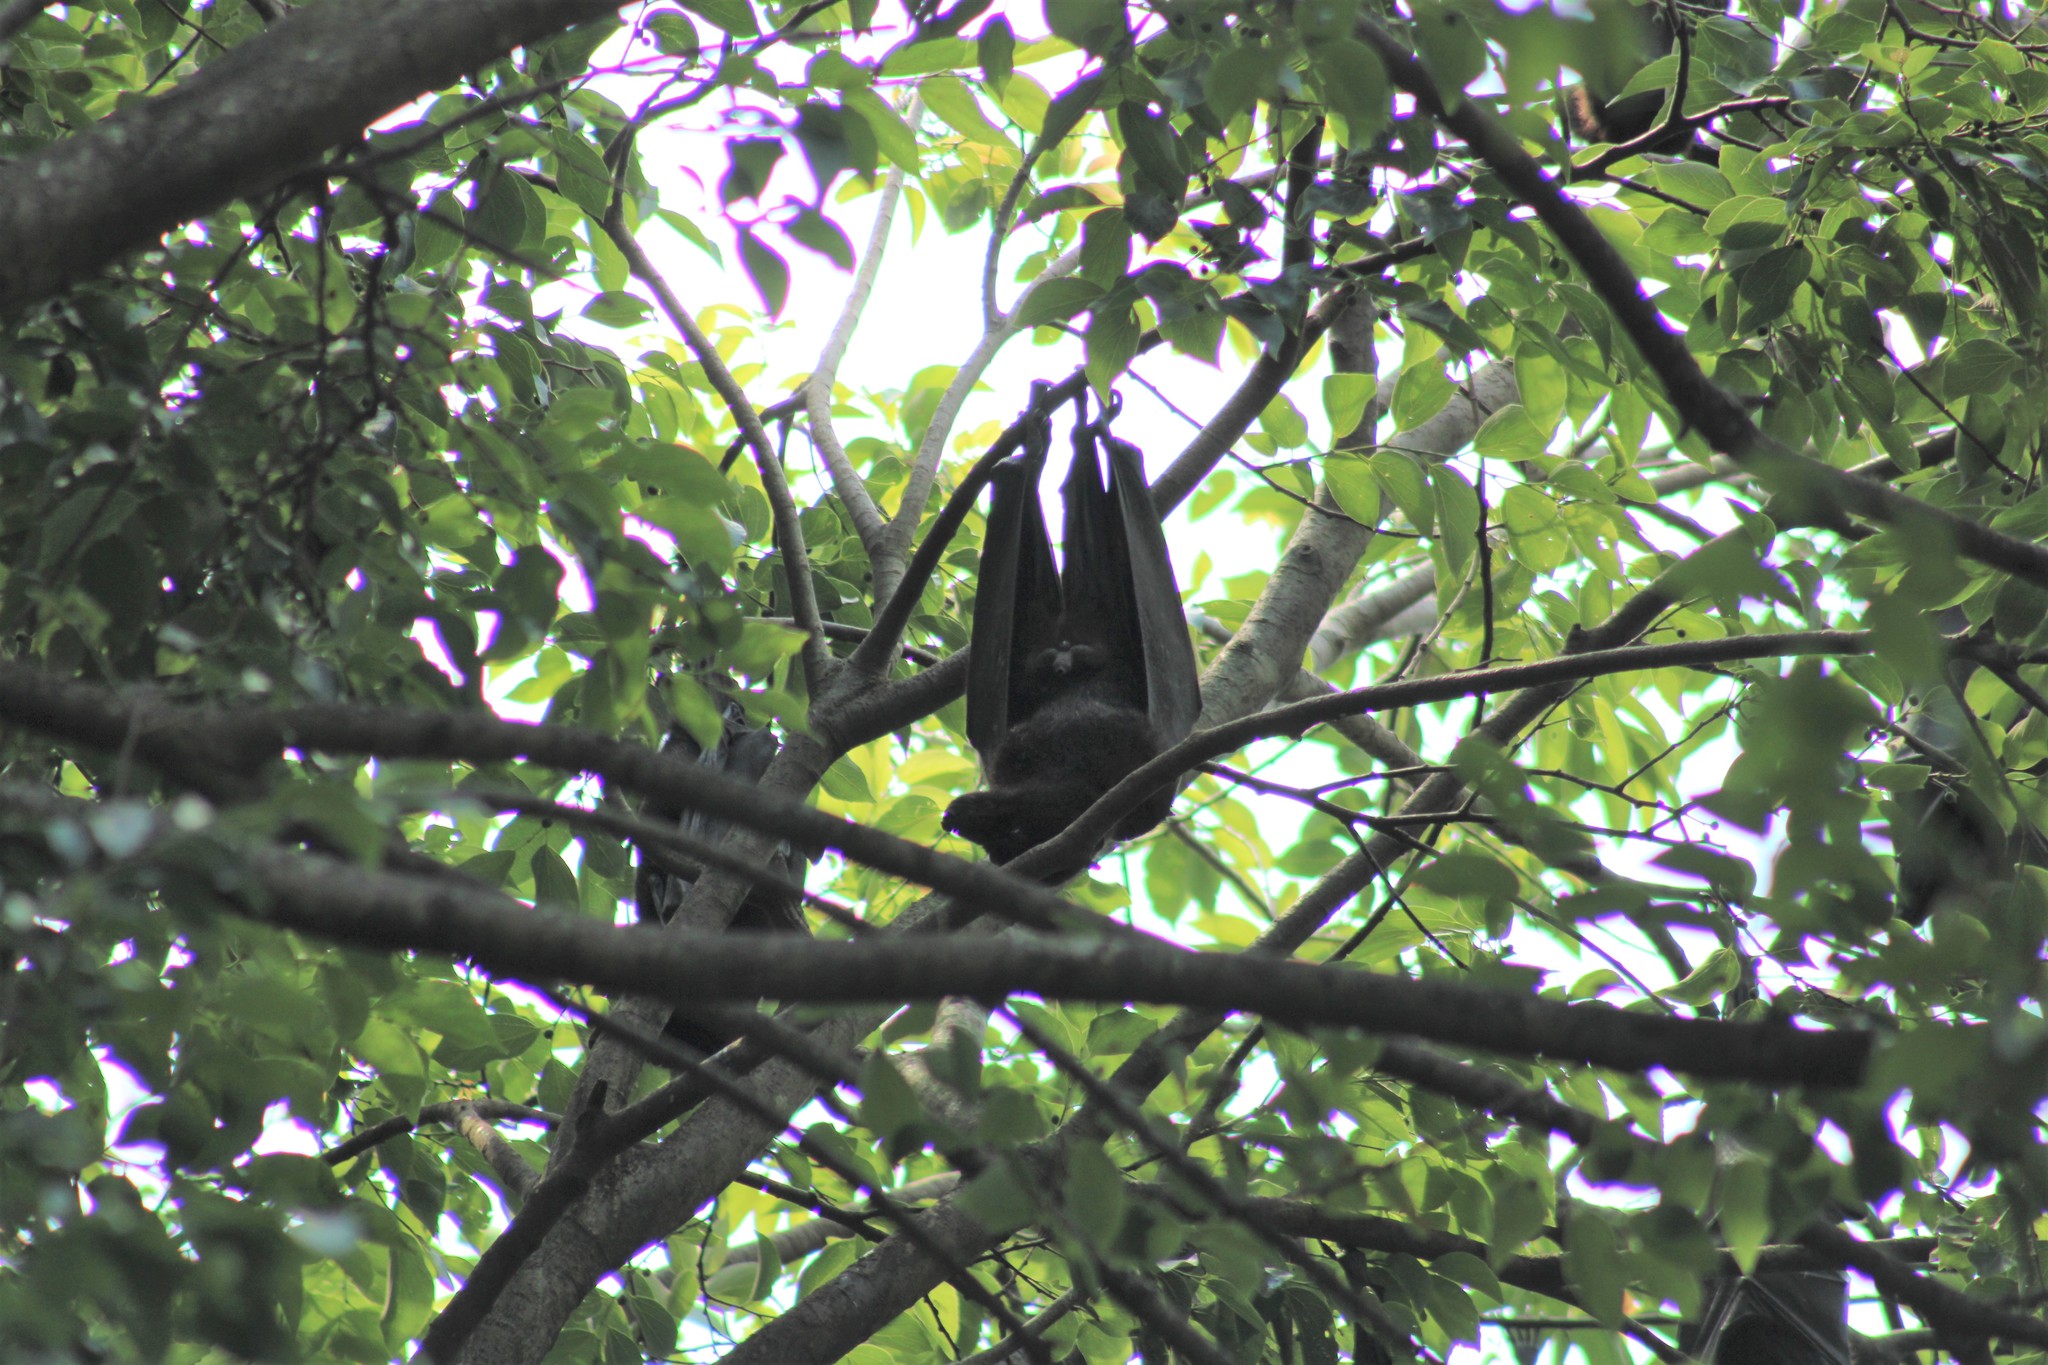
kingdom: Animalia
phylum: Chordata
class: Mammalia
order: Chiroptera
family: Pteropodidae
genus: Pteropus
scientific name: Pteropus alecto
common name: Black flying fox
